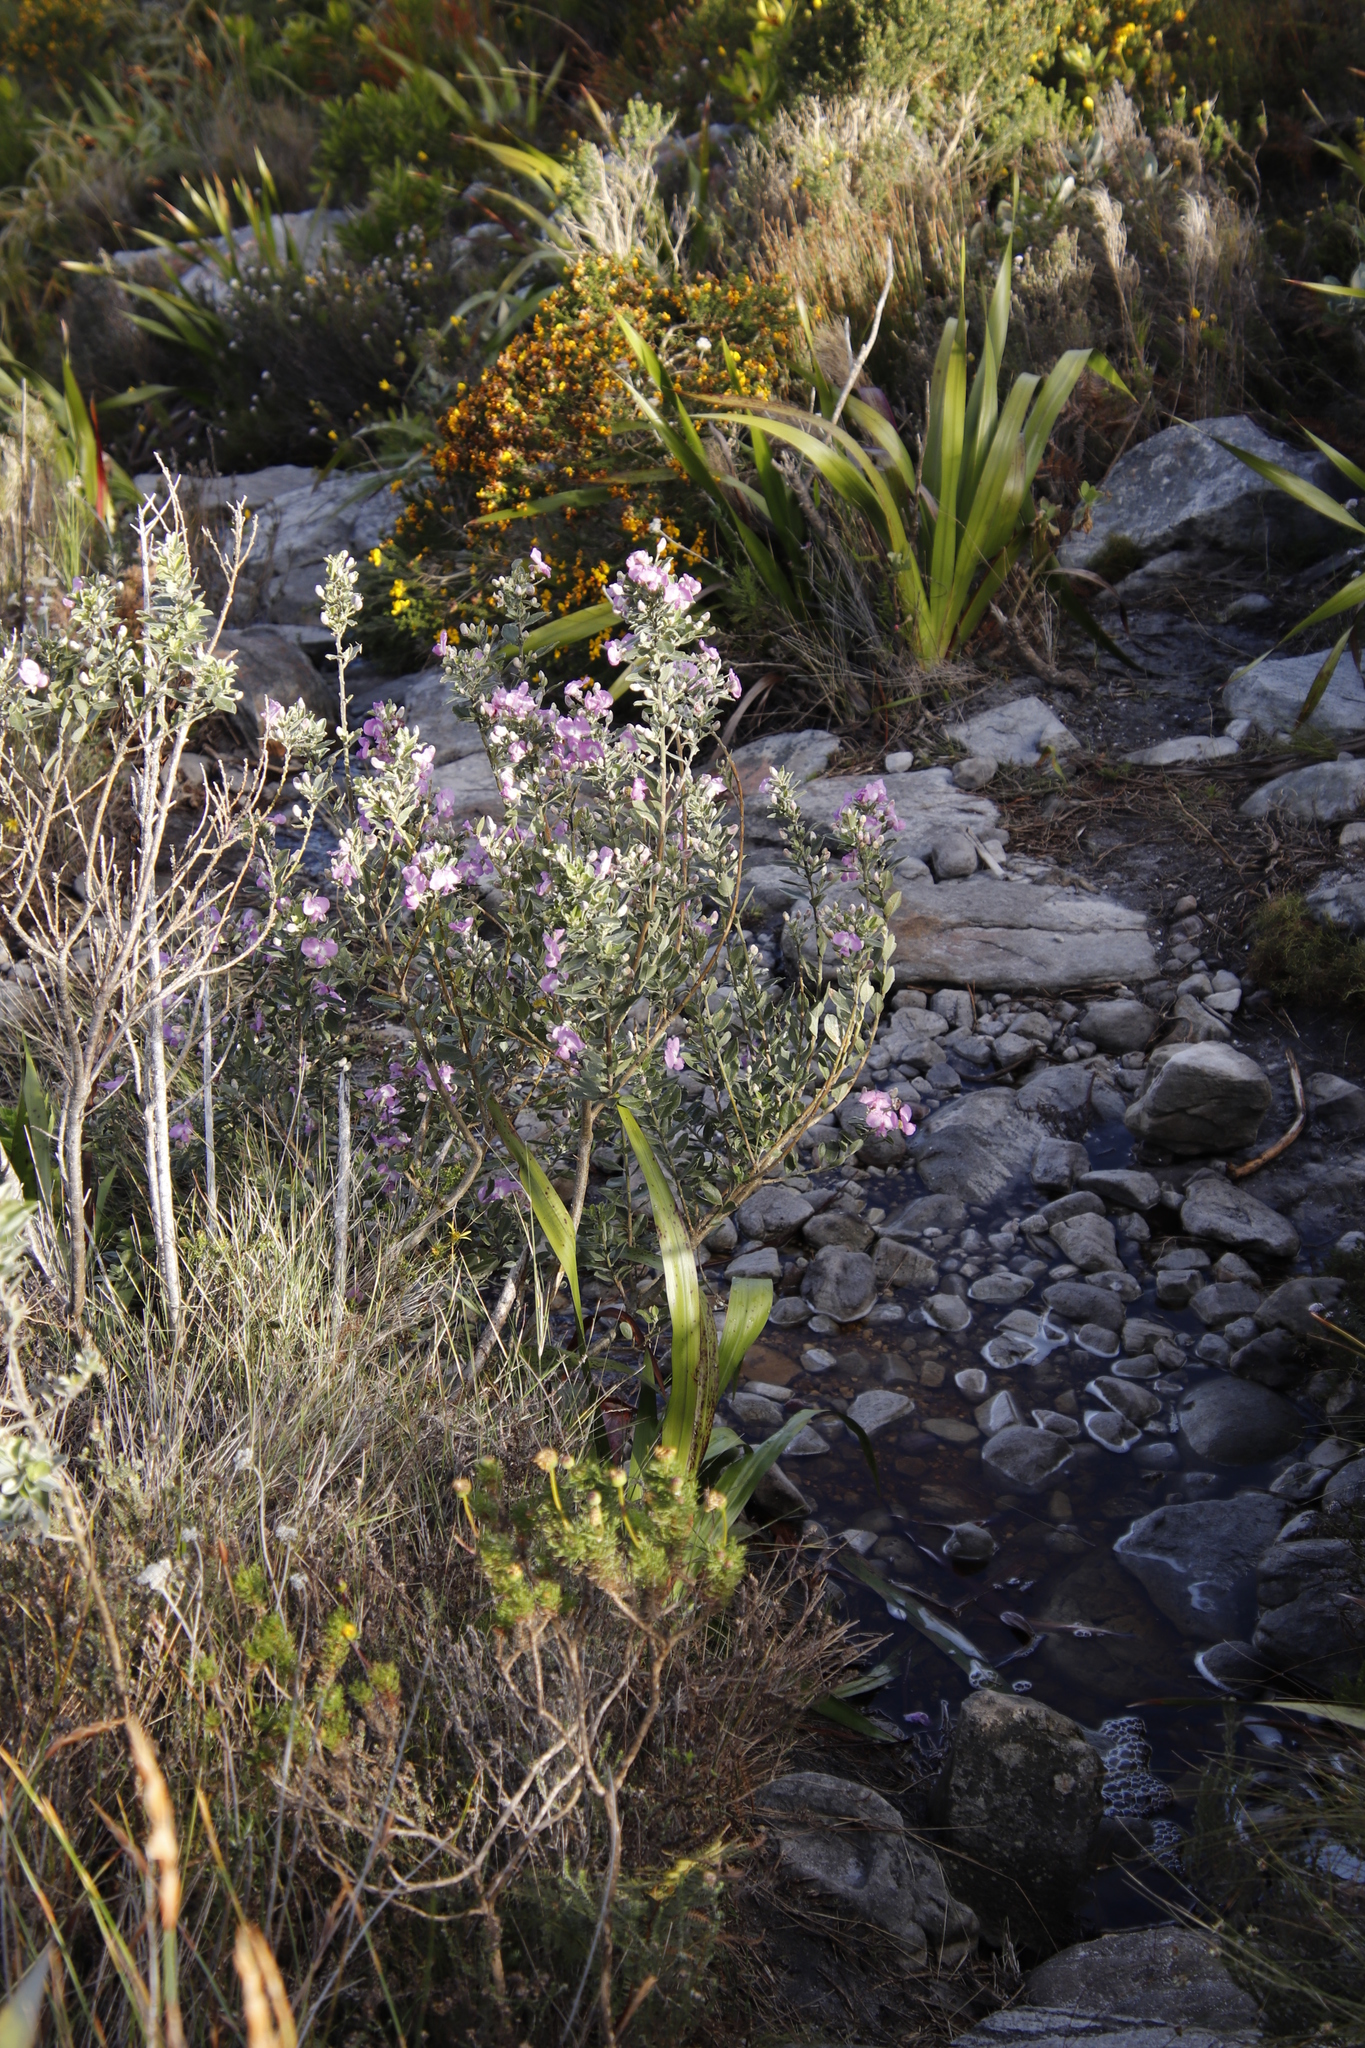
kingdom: Plantae
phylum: Tracheophyta
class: Magnoliopsida
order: Fabales
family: Fabaceae
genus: Podalyria
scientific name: Podalyria calyptrata
